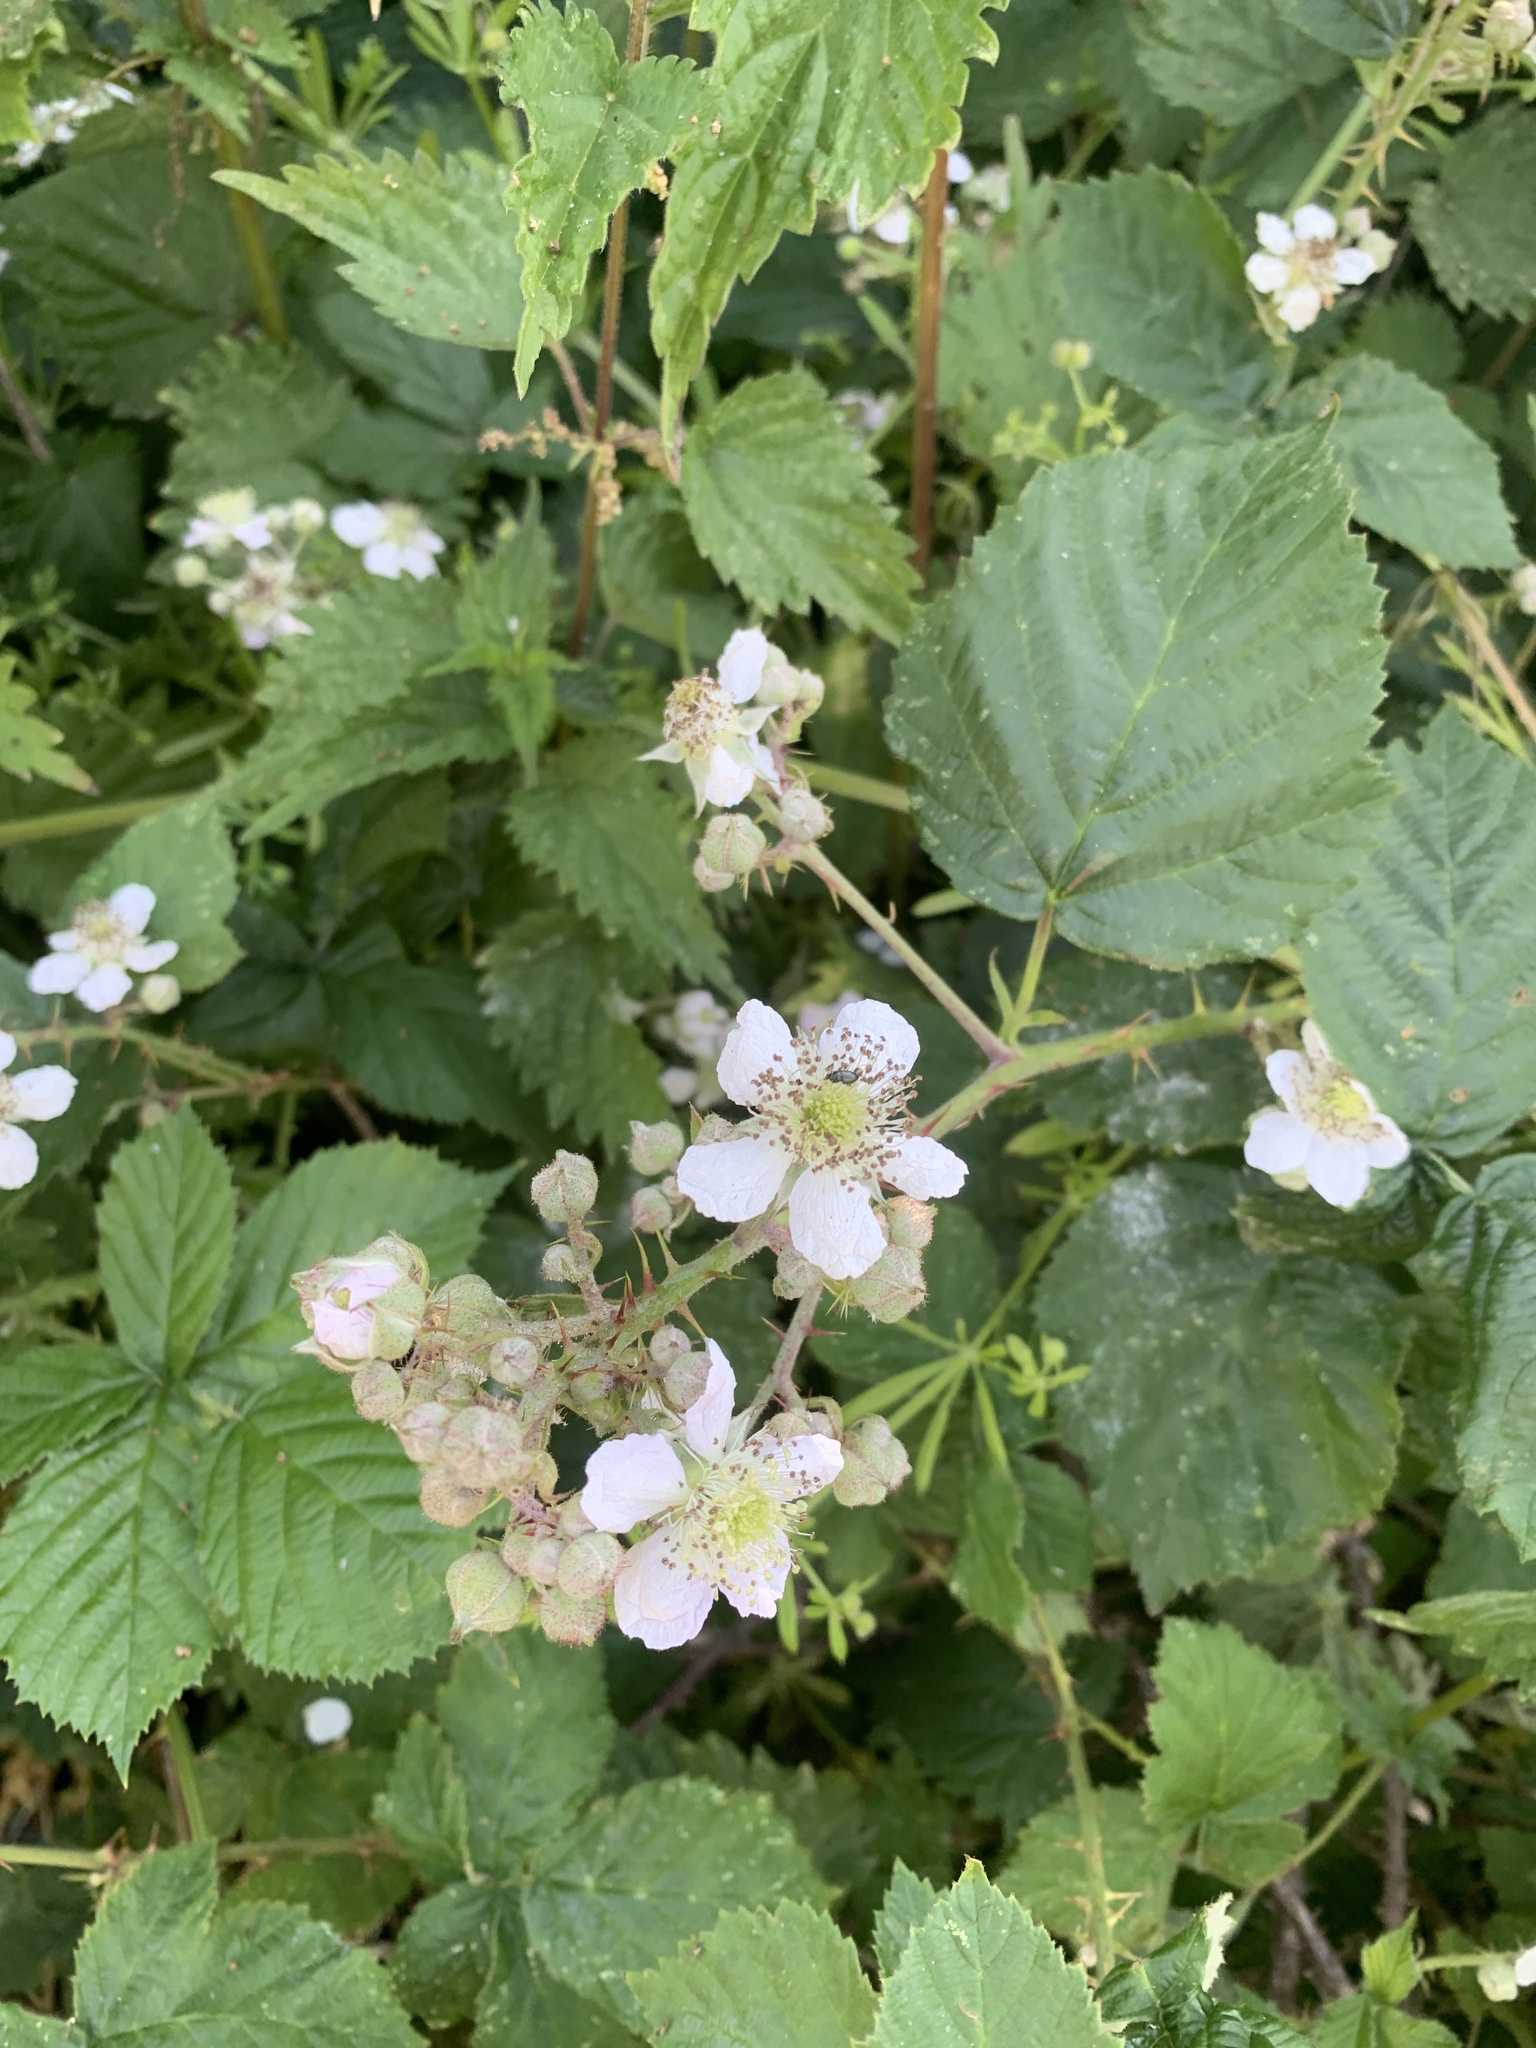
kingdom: Plantae
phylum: Tracheophyta
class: Magnoliopsida
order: Rosales
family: Rosaceae
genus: Rubus
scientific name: Rubus fruticosus
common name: Blackberry, bramble
